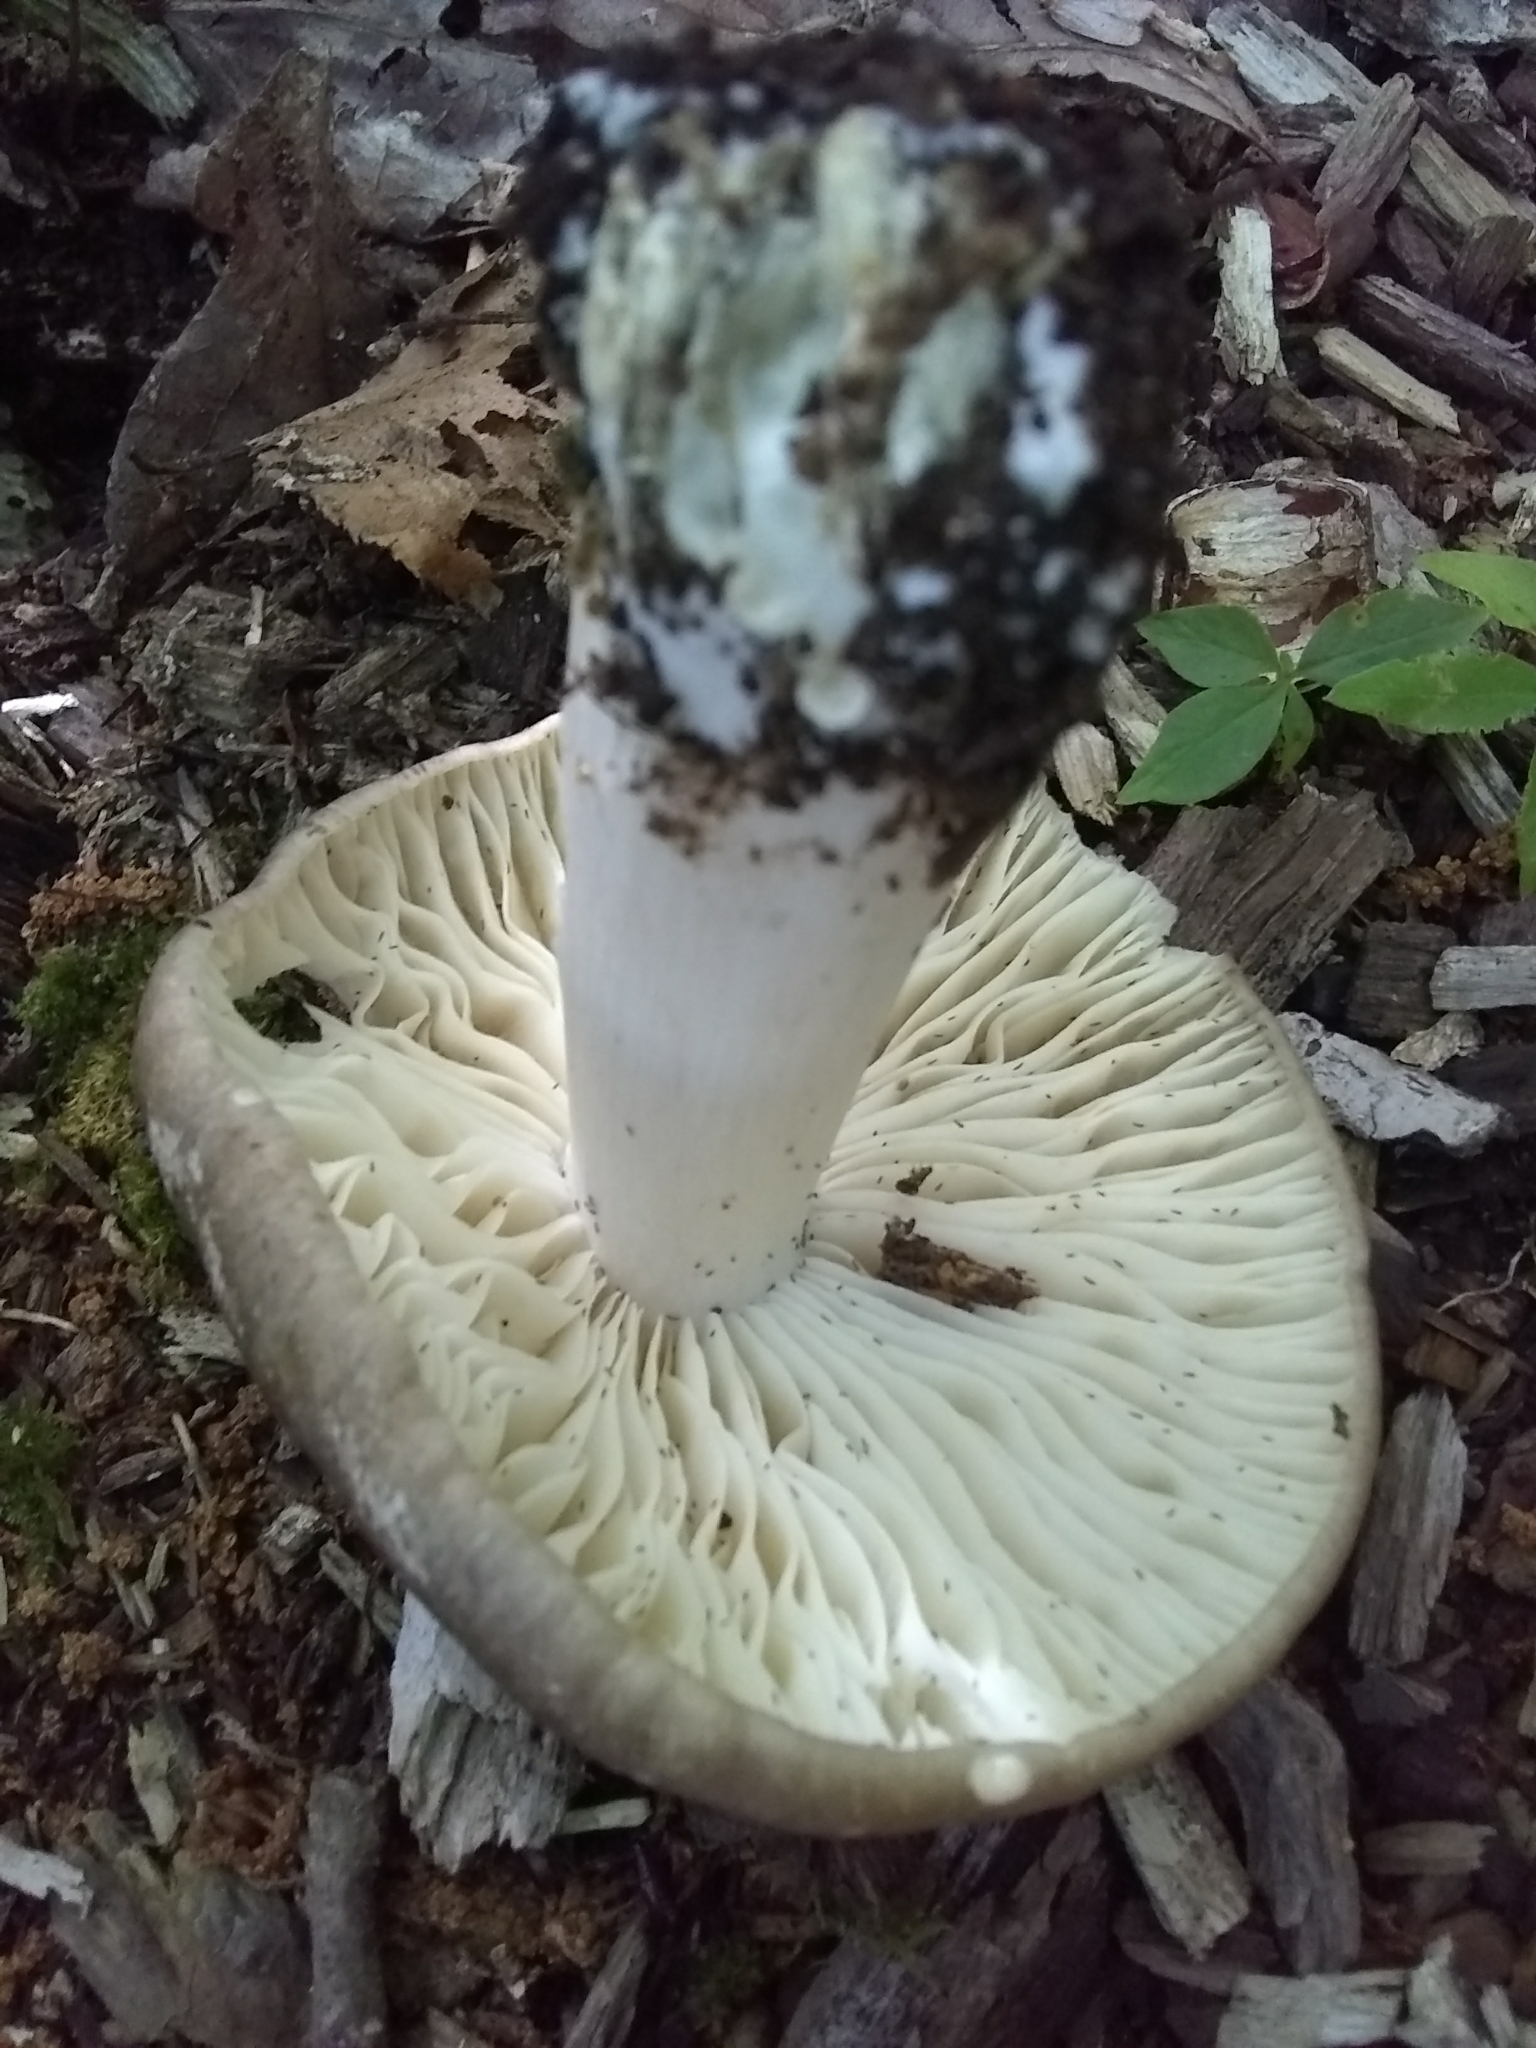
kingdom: Fungi
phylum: Basidiomycota
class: Agaricomycetes
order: Agaricales
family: Tricholomataceae
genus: Megacollybia
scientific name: Megacollybia rodmanii
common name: Eastern american platterful mushroom
